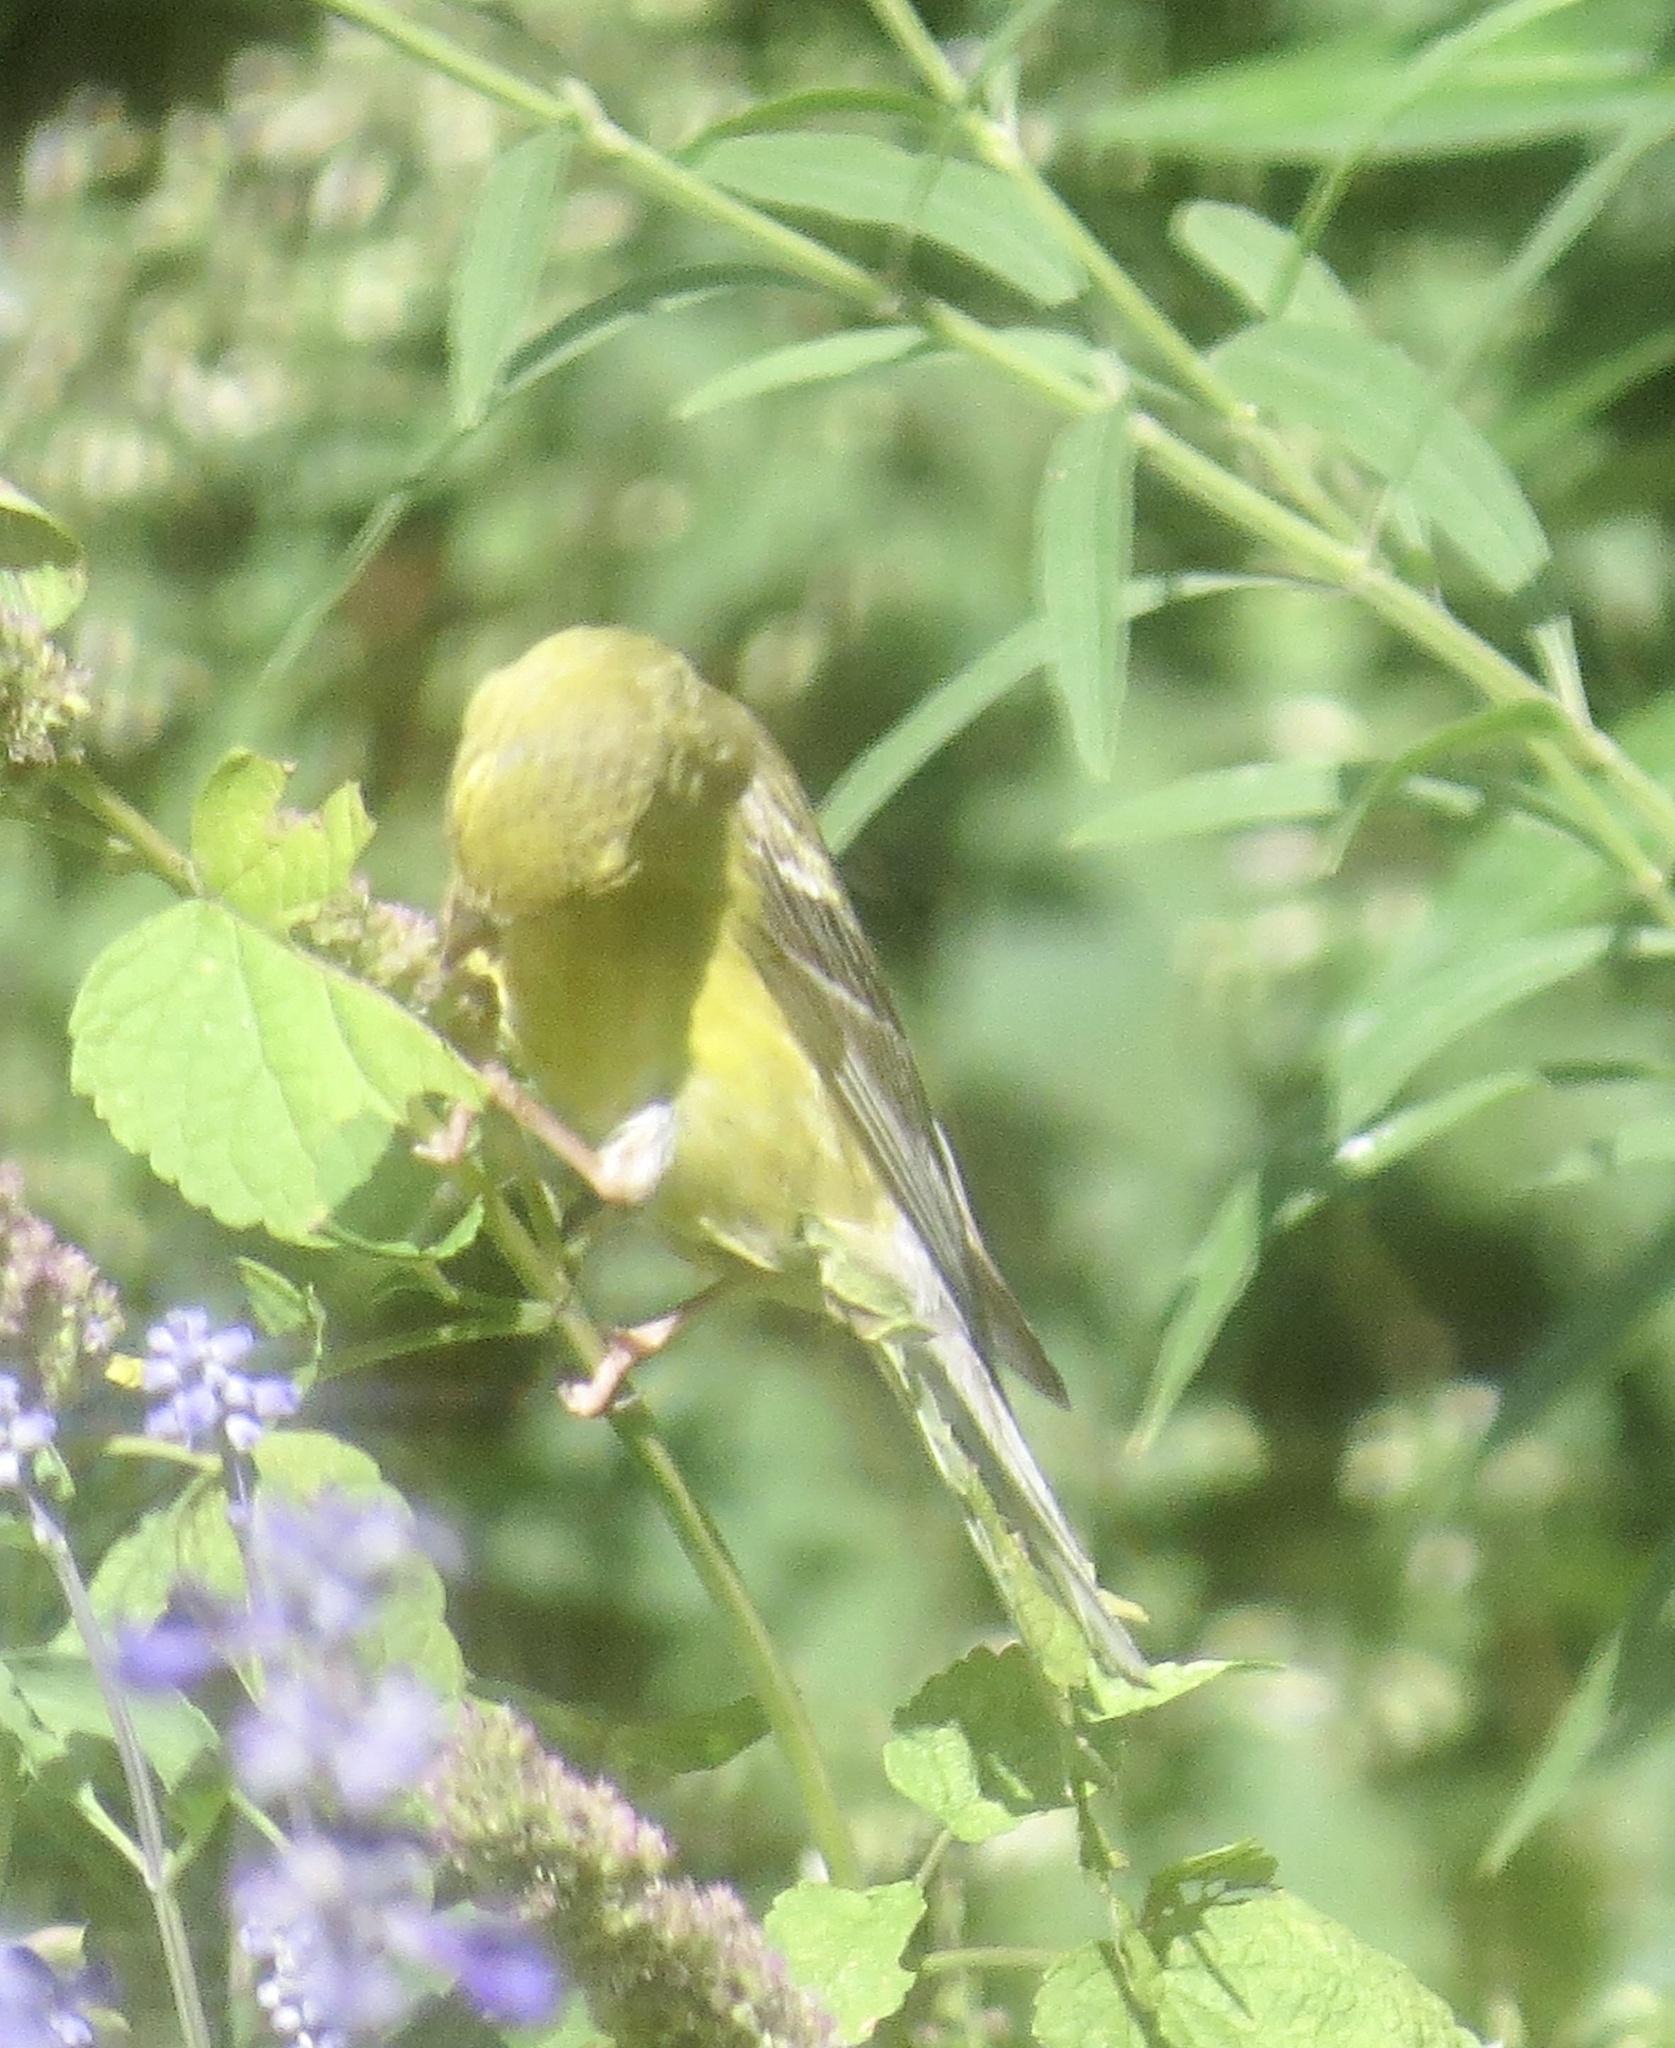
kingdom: Animalia
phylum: Chordata
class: Aves
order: Passeriformes
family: Fringillidae
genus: Spinus
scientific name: Spinus tristis
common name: American goldfinch
